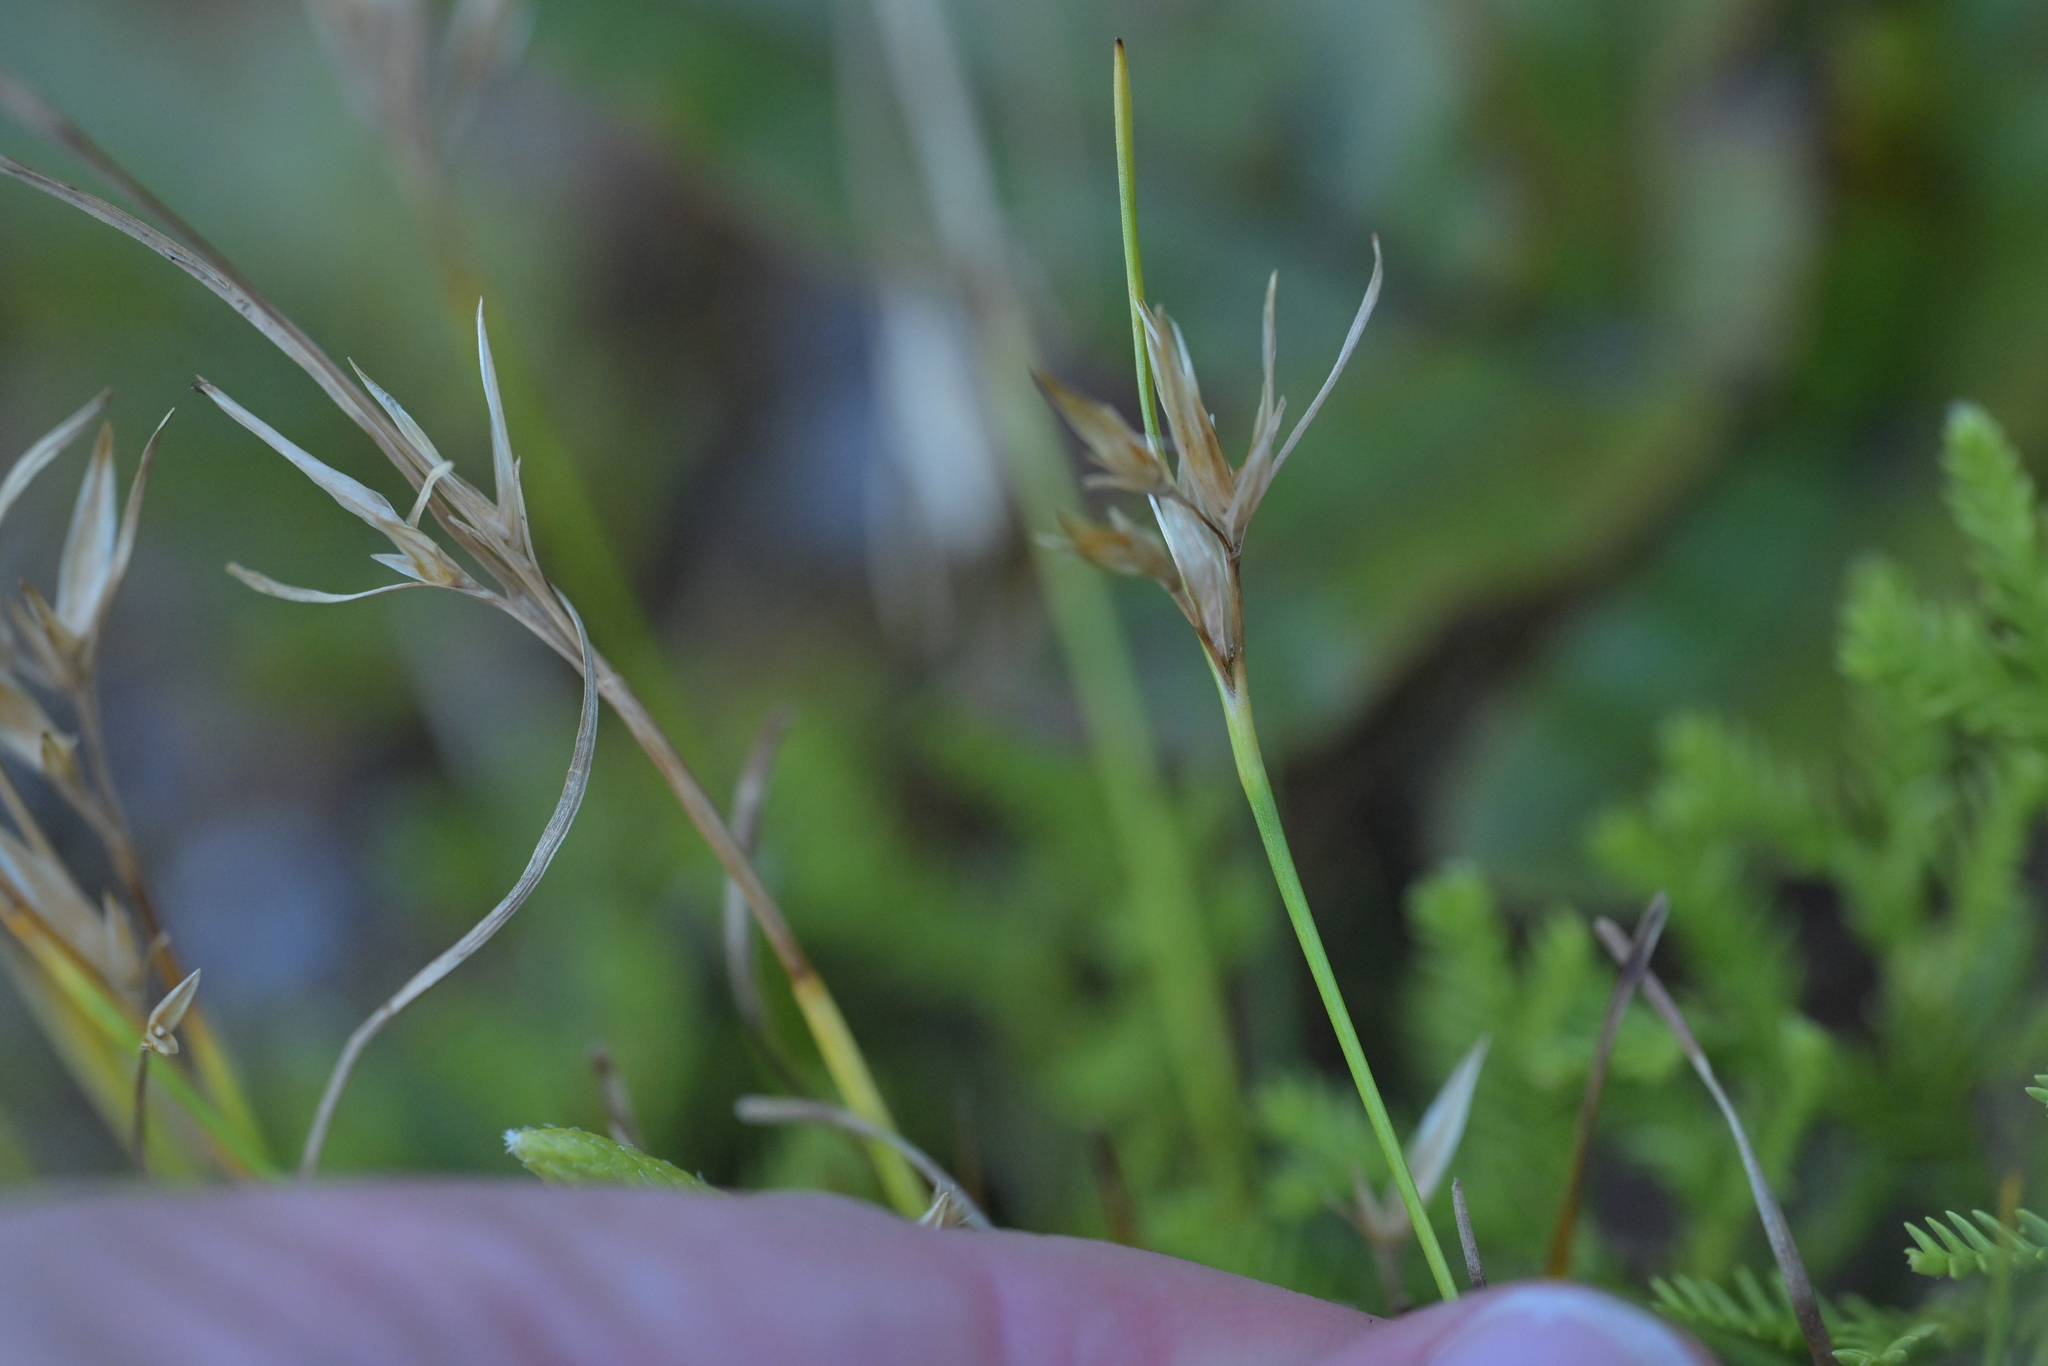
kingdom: Plantae
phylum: Tracheophyta
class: Liliopsida
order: Poales
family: Cyperaceae
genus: Carpha
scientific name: Carpha alpina
